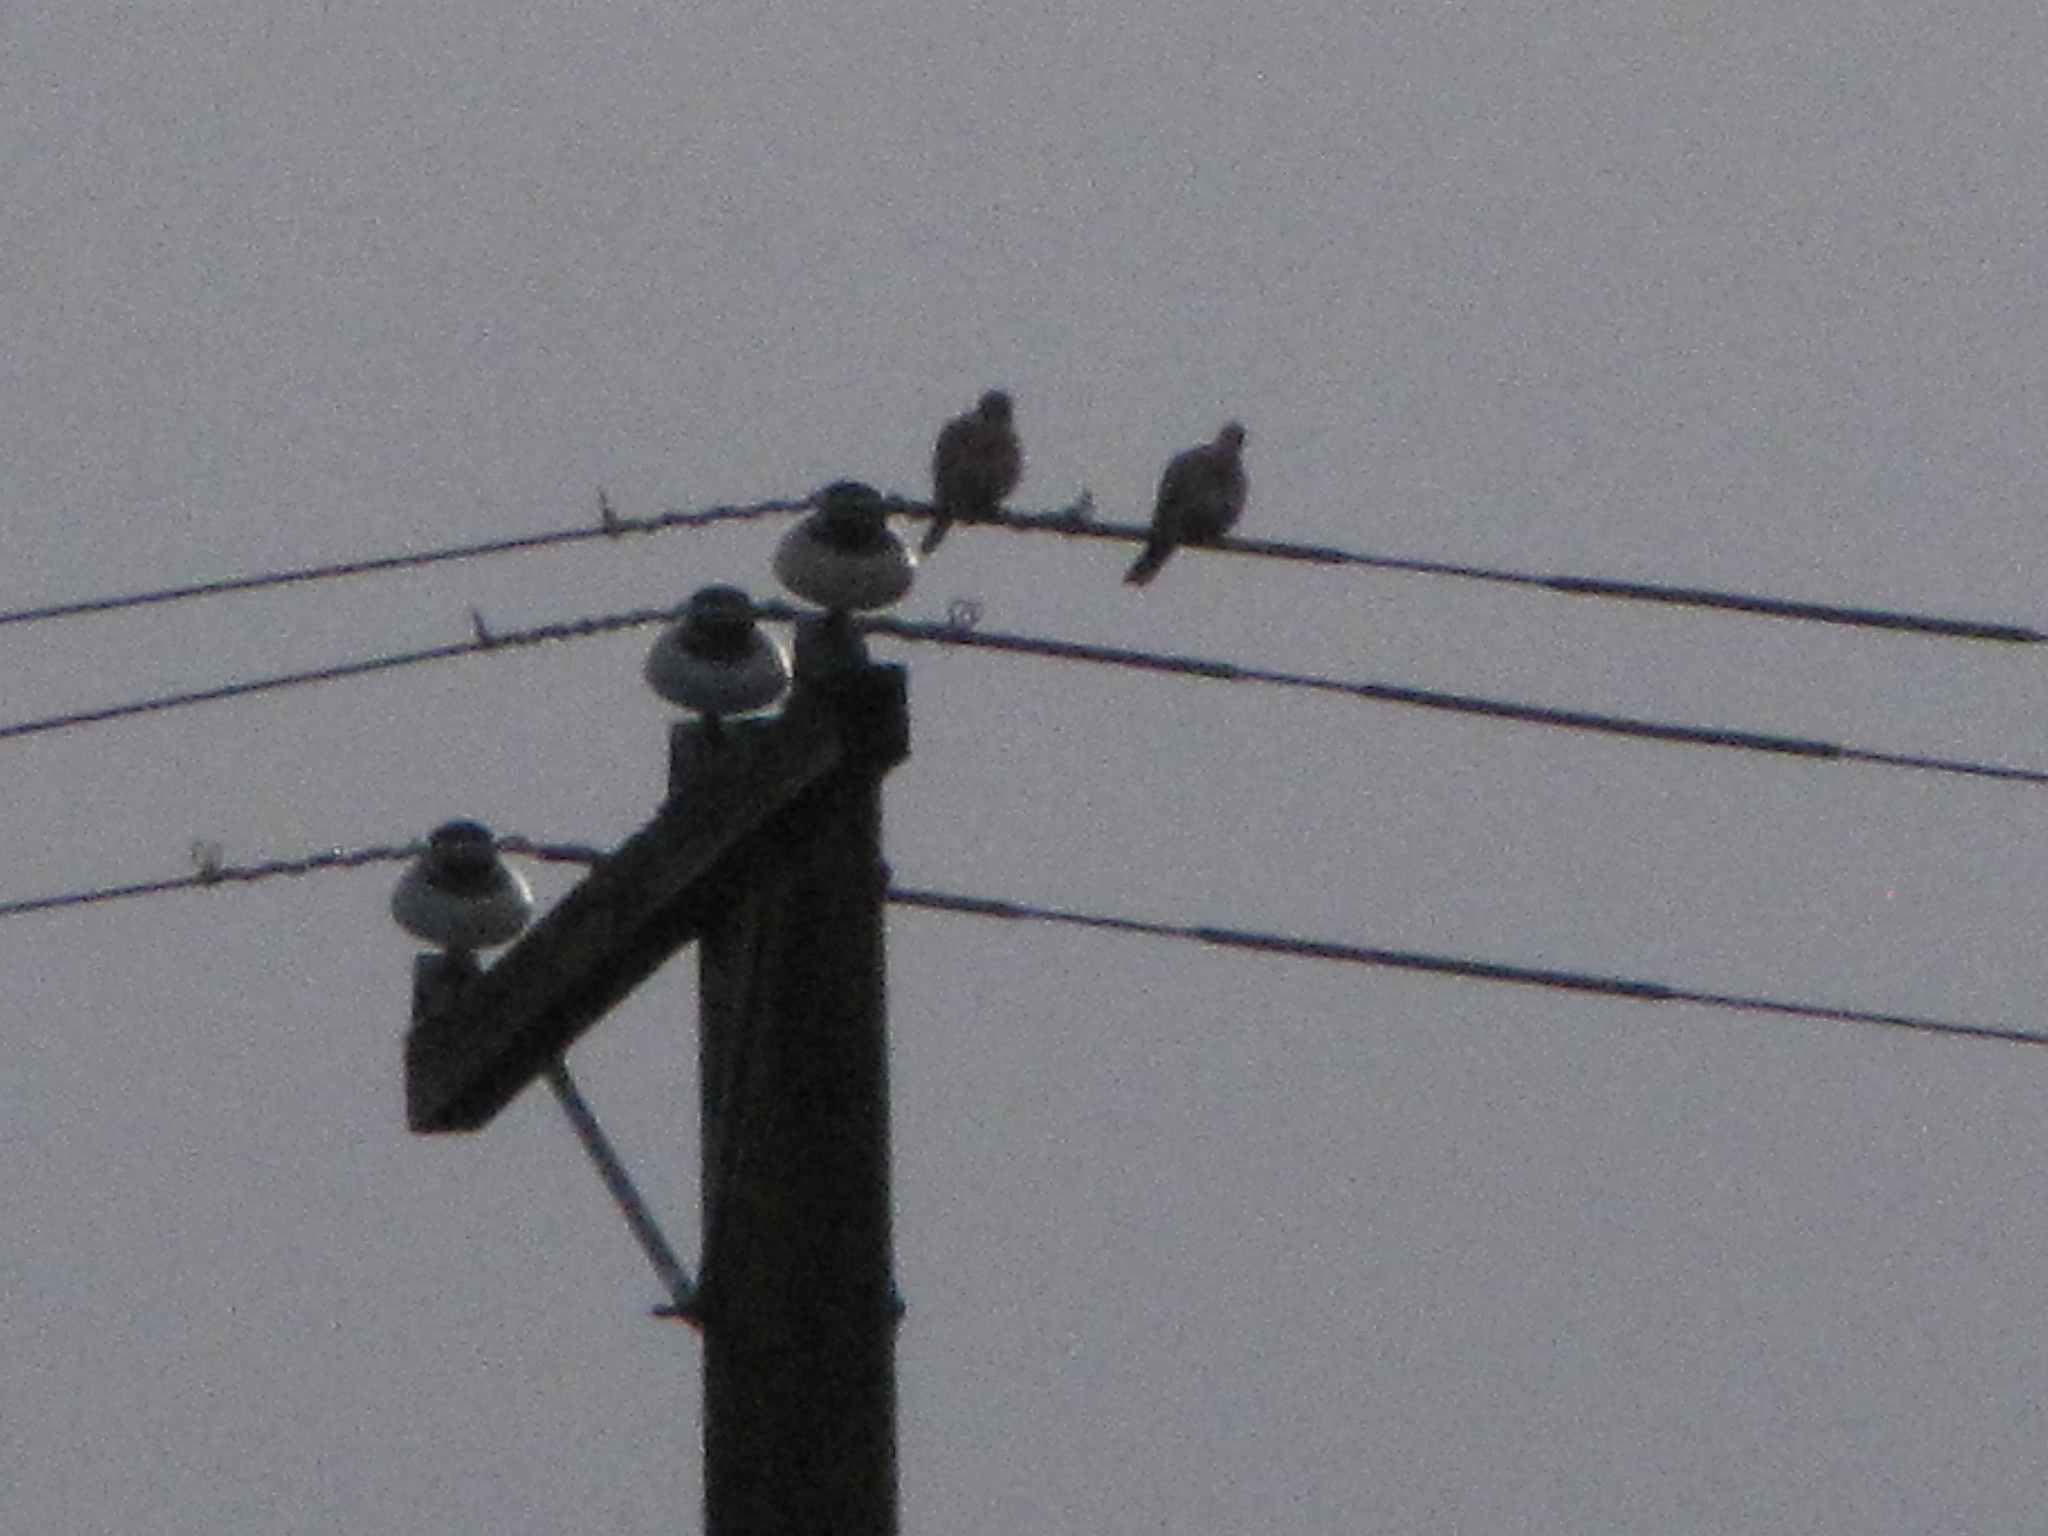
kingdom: Animalia
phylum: Chordata
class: Aves
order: Columbiformes
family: Columbidae
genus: Streptopelia
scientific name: Streptopelia decaocto
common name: Eurasian collared dove
